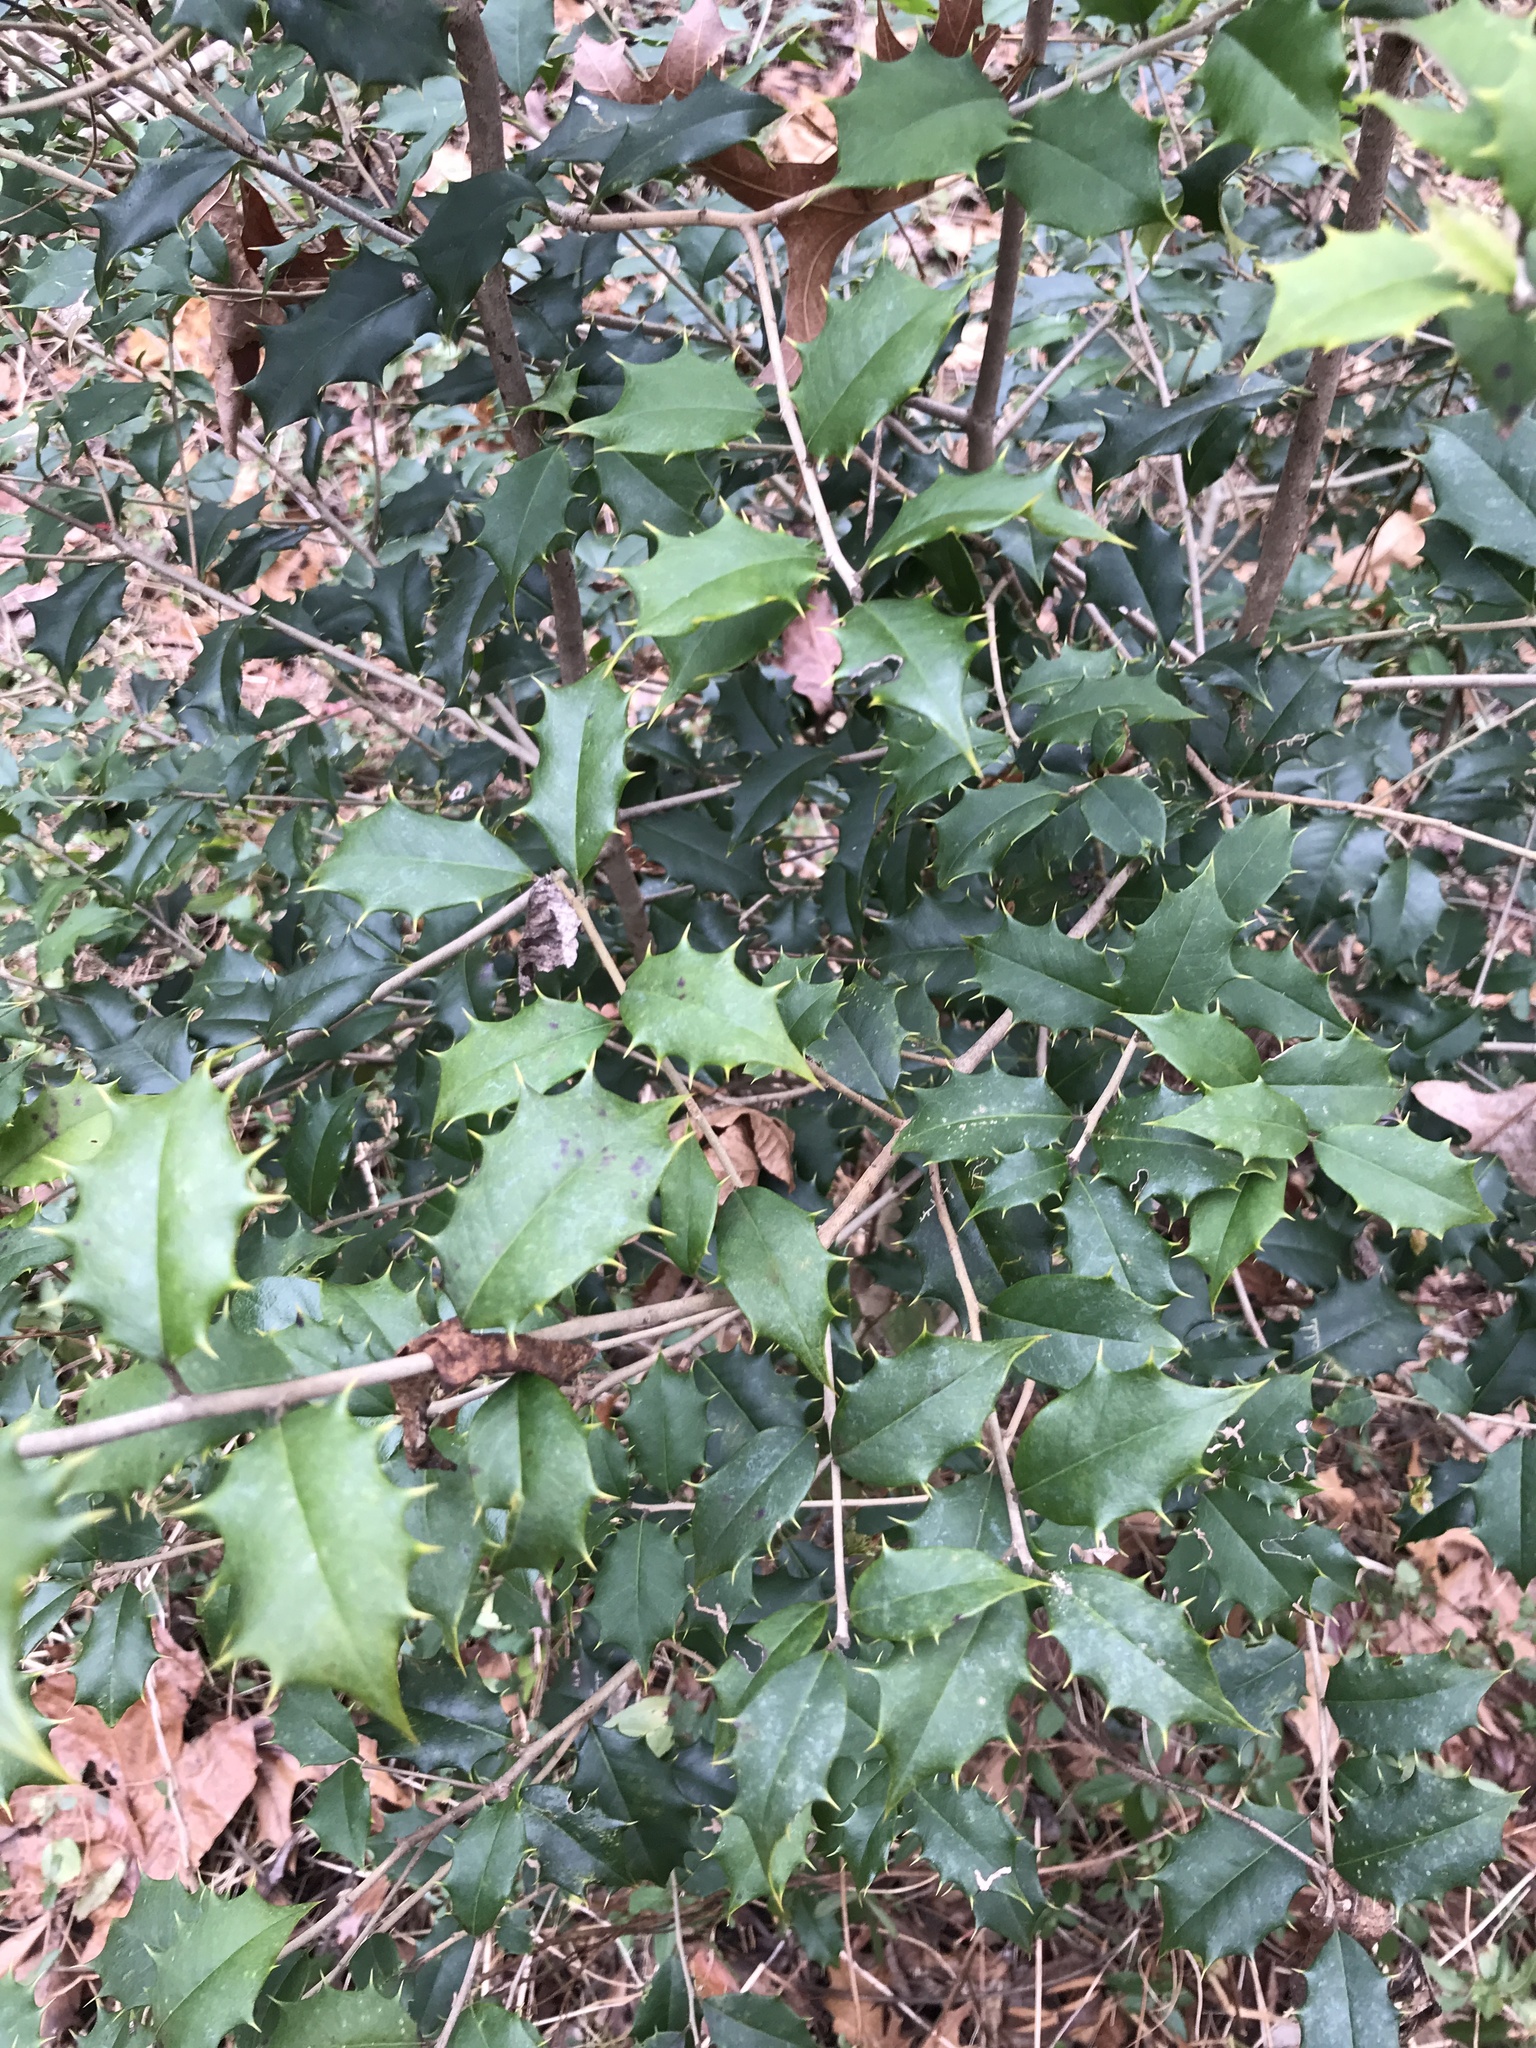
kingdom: Plantae
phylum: Tracheophyta
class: Magnoliopsida
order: Aquifoliales
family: Aquifoliaceae
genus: Ilex
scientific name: Ilex opaca
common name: American holly
